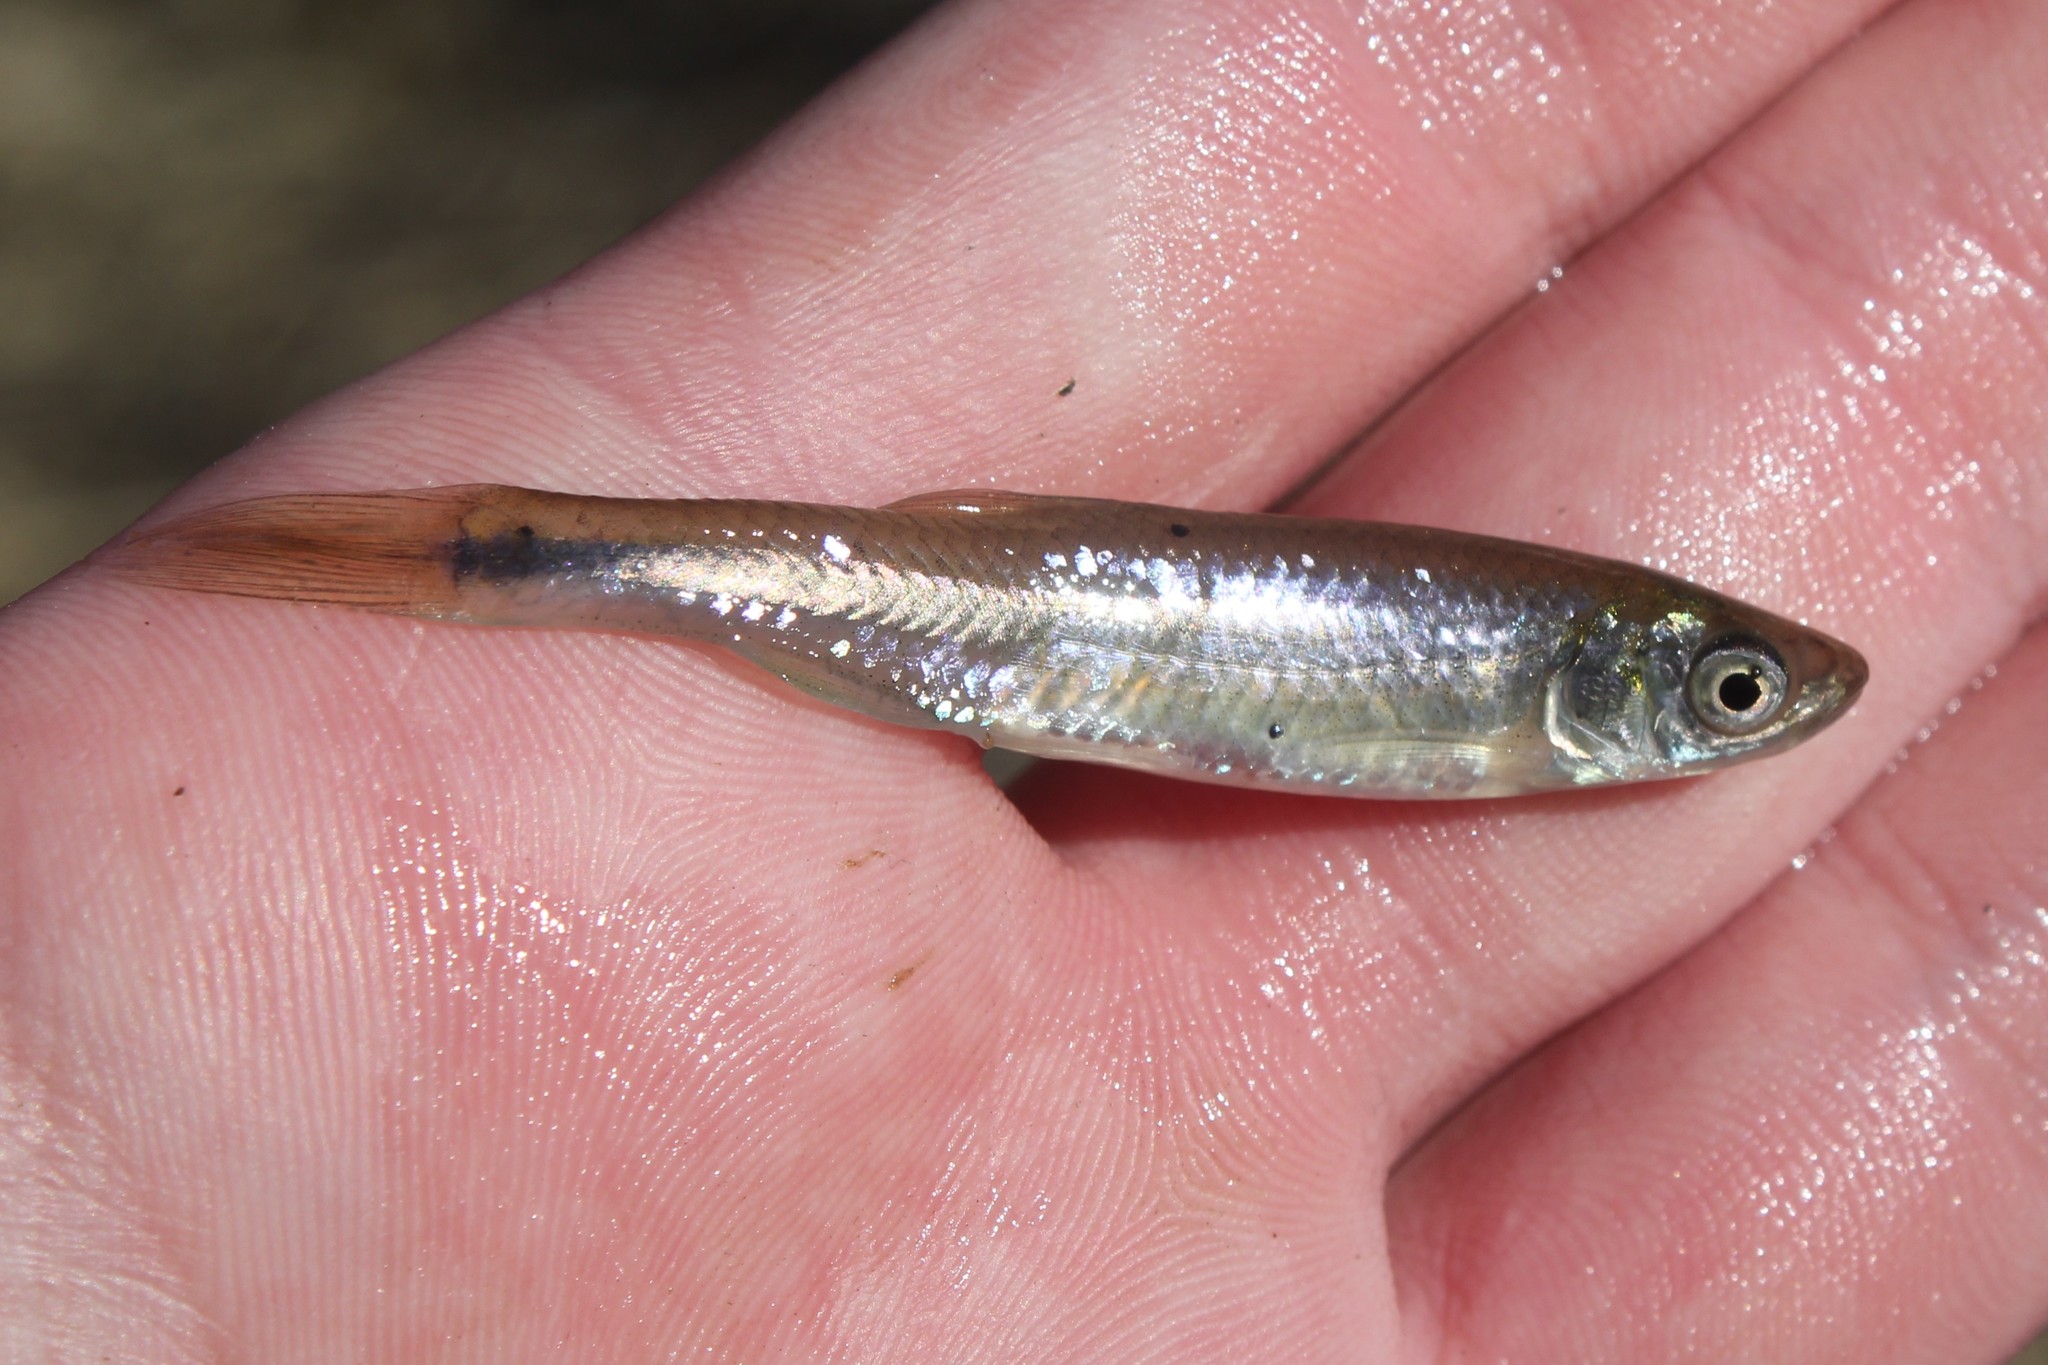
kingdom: Animalia
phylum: Chordata
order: Cypriniformes
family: Cyprinidae
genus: Cyprinella
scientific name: Cyprinella spiloptera
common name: Spotfin shiner
